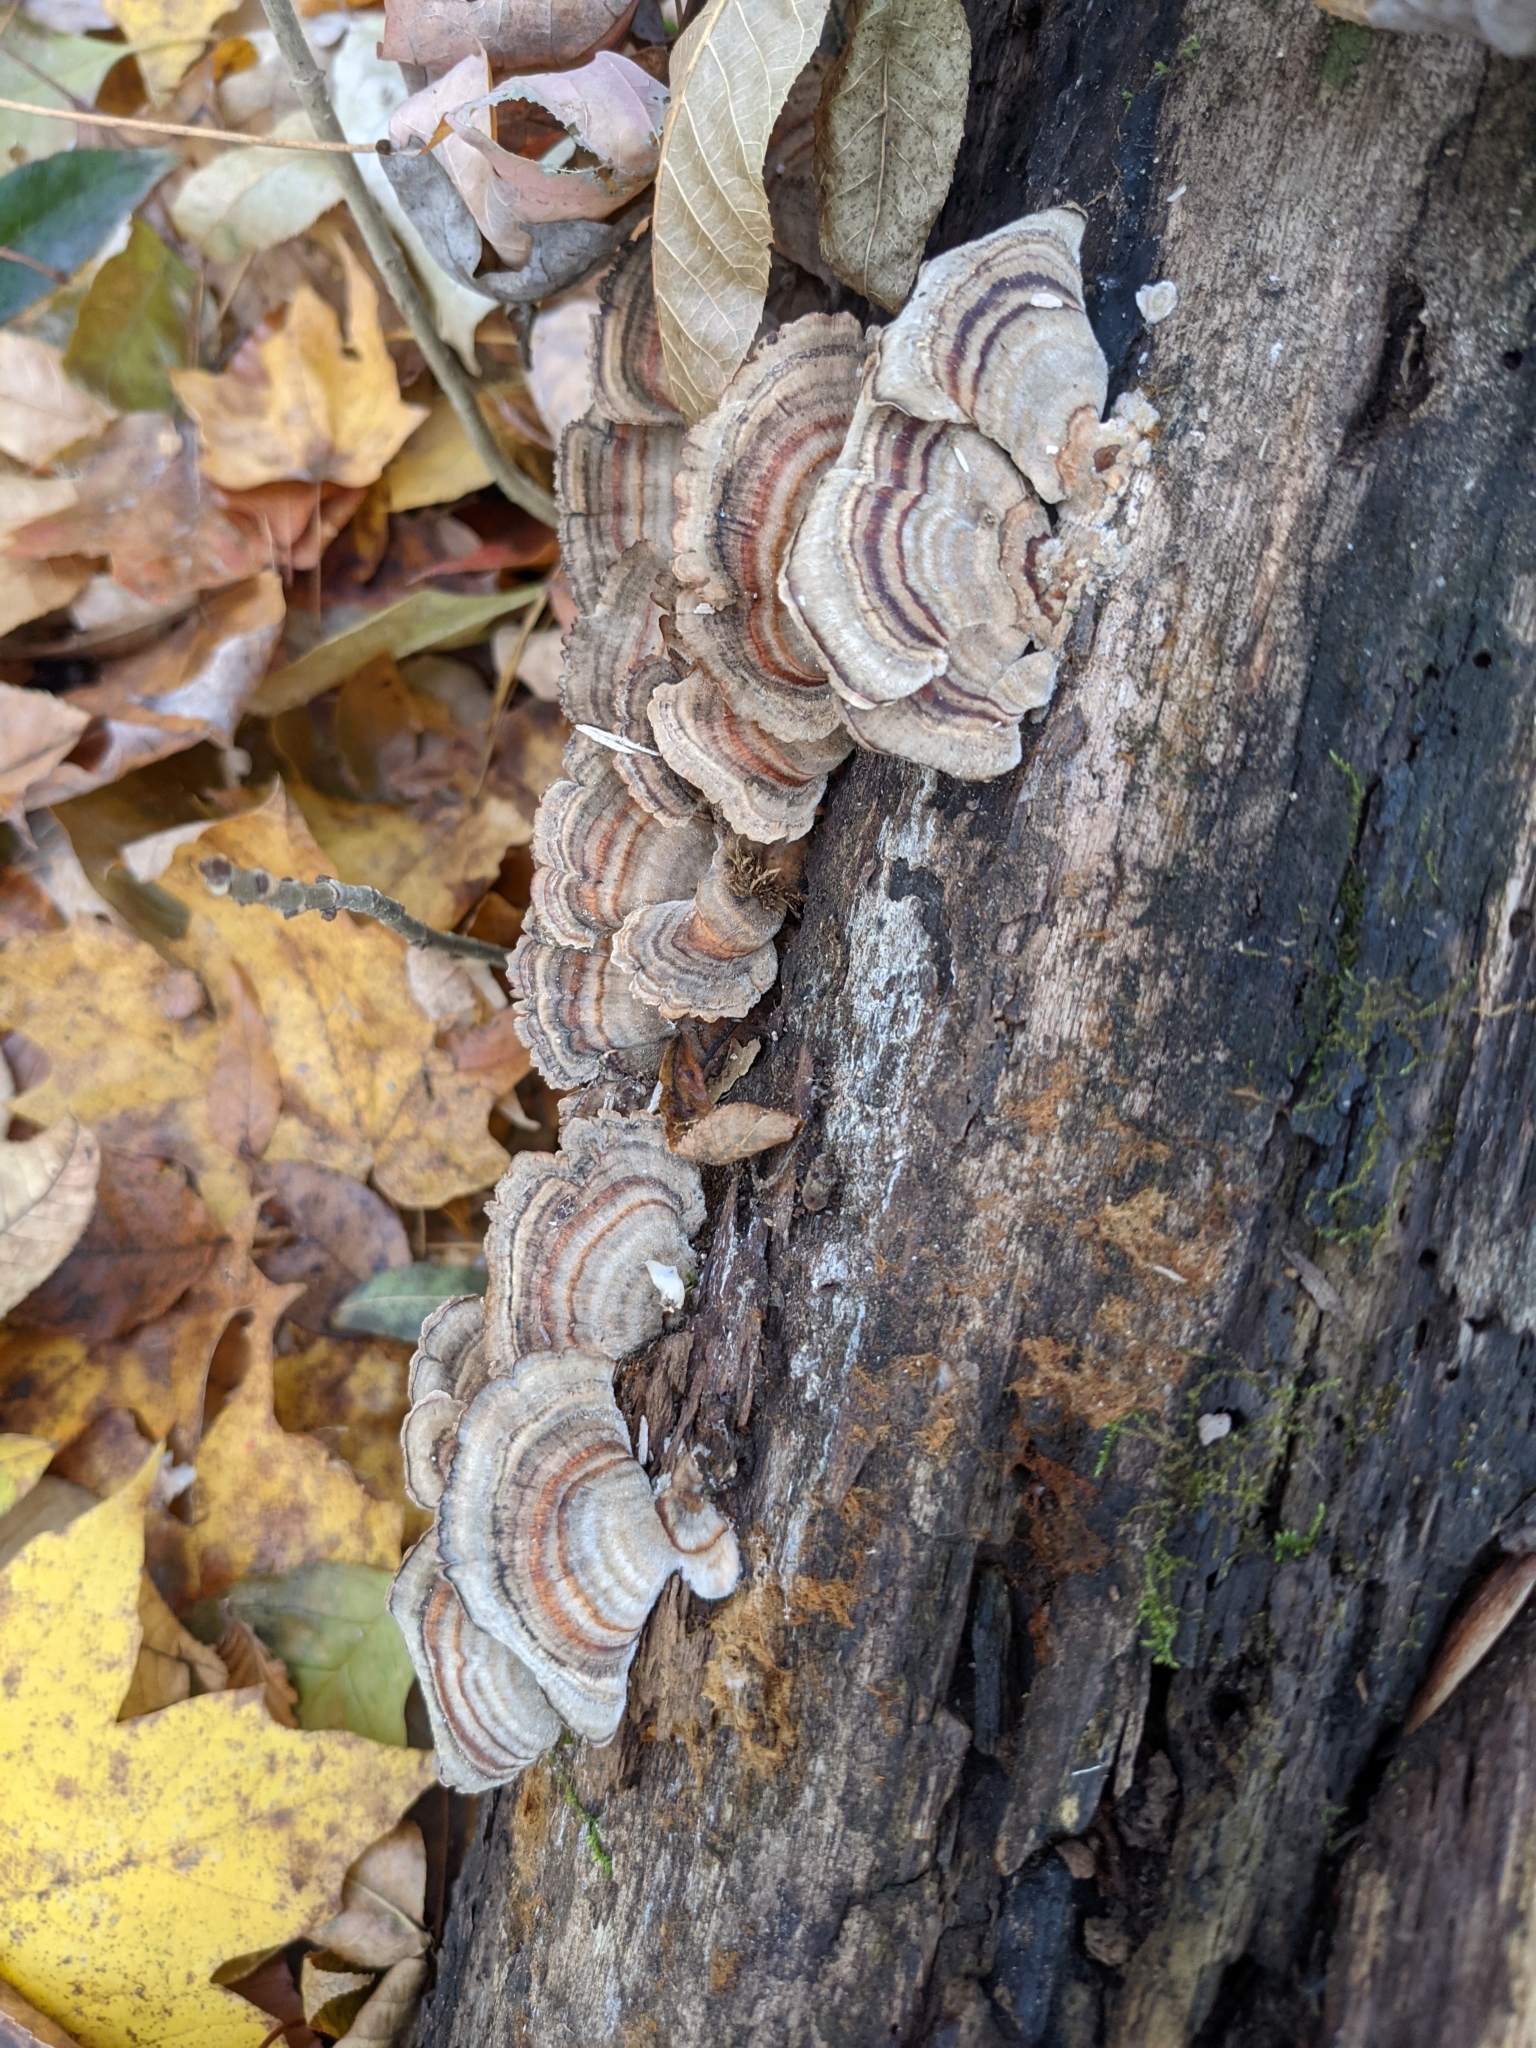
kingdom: Fungi
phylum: Basidiomycota
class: Agaricomycetes
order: Polyporales
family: Polyporaceae
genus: Trametes
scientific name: Trametes versicolor
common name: Turkeytail
